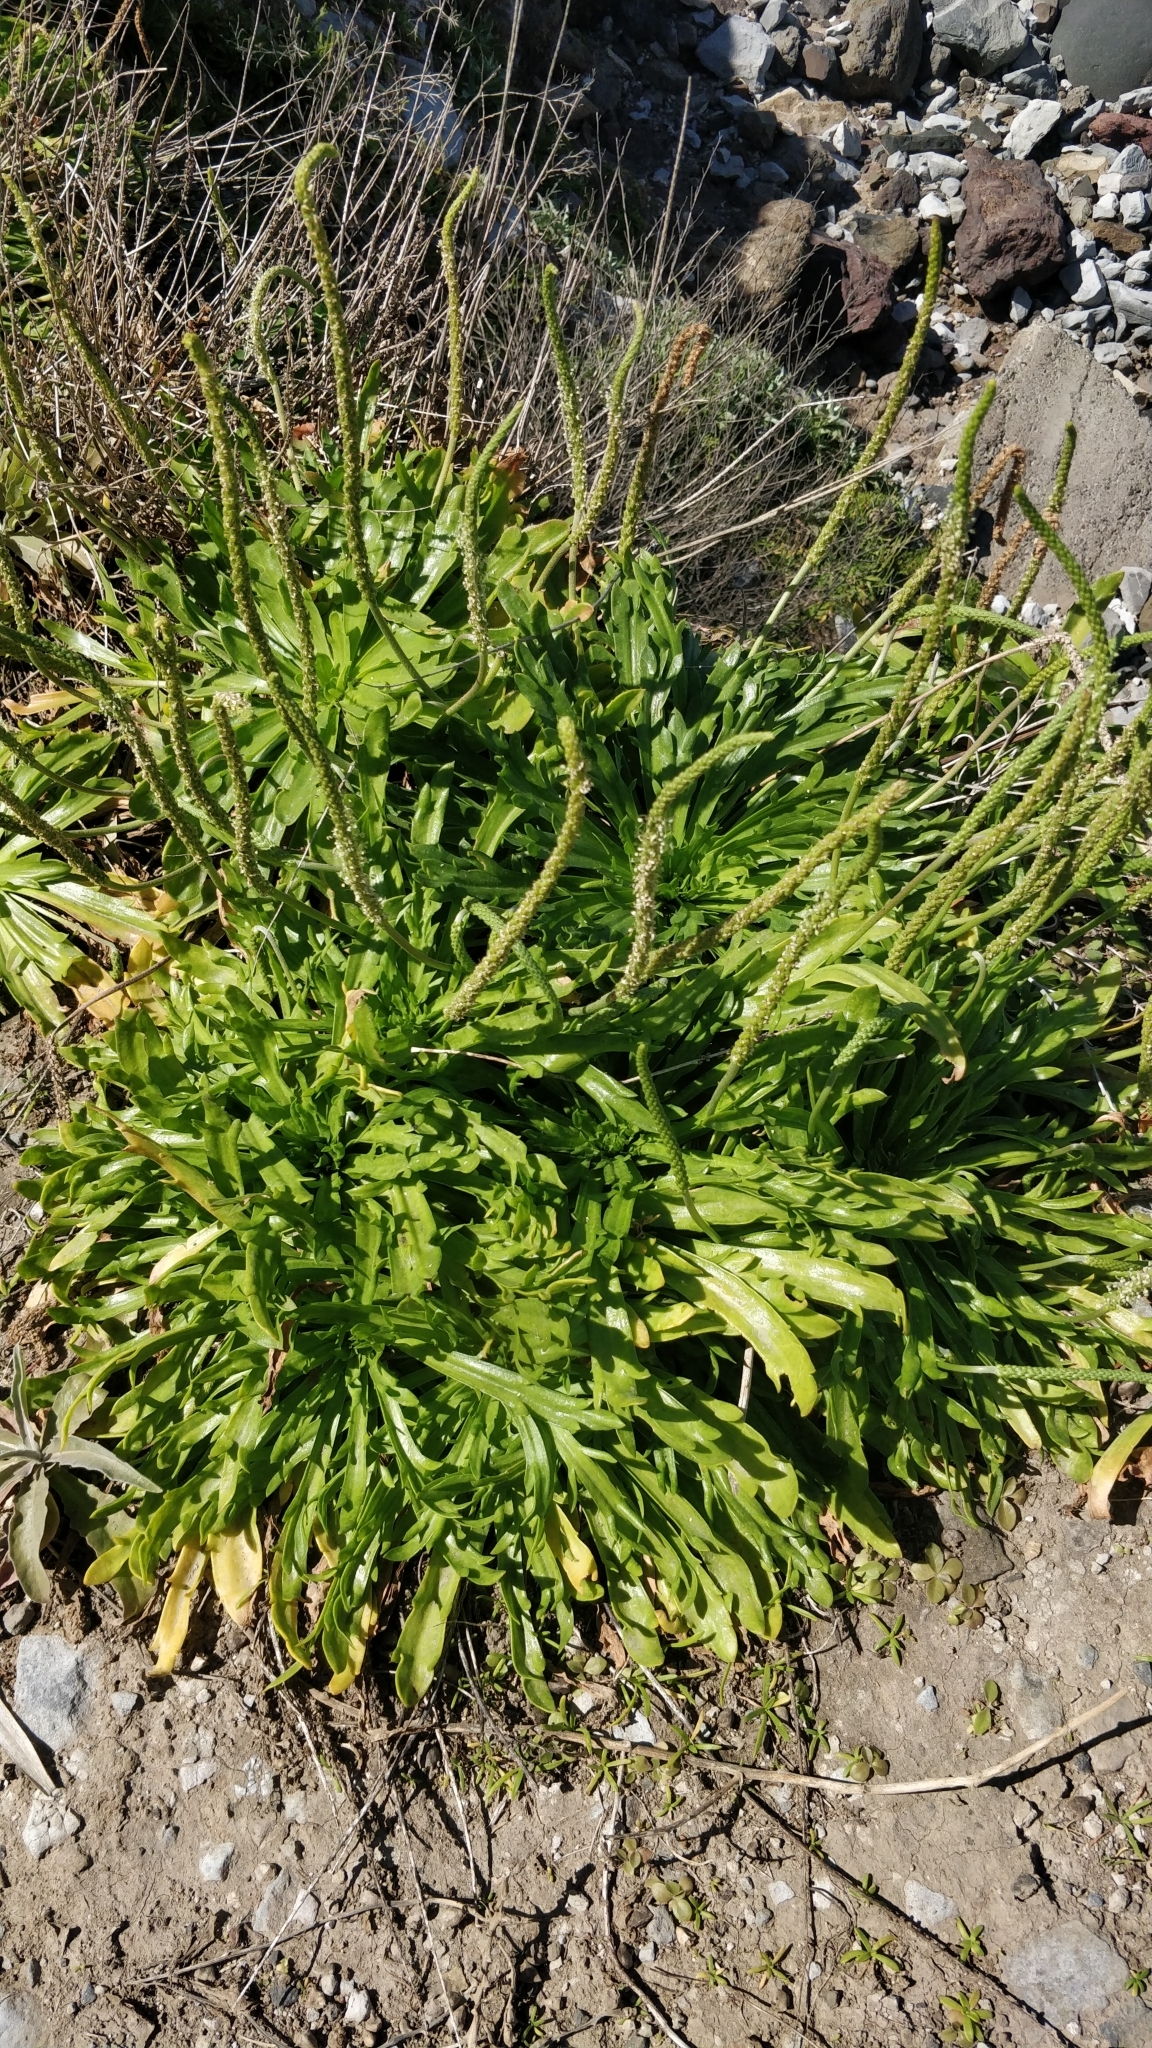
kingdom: Plantae
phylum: Tracheophyta
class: Magnoliopsida
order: Lamiales
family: Plantaginaceae
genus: Plantago
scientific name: Plantago coronopus
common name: Buck's-horn plantain
